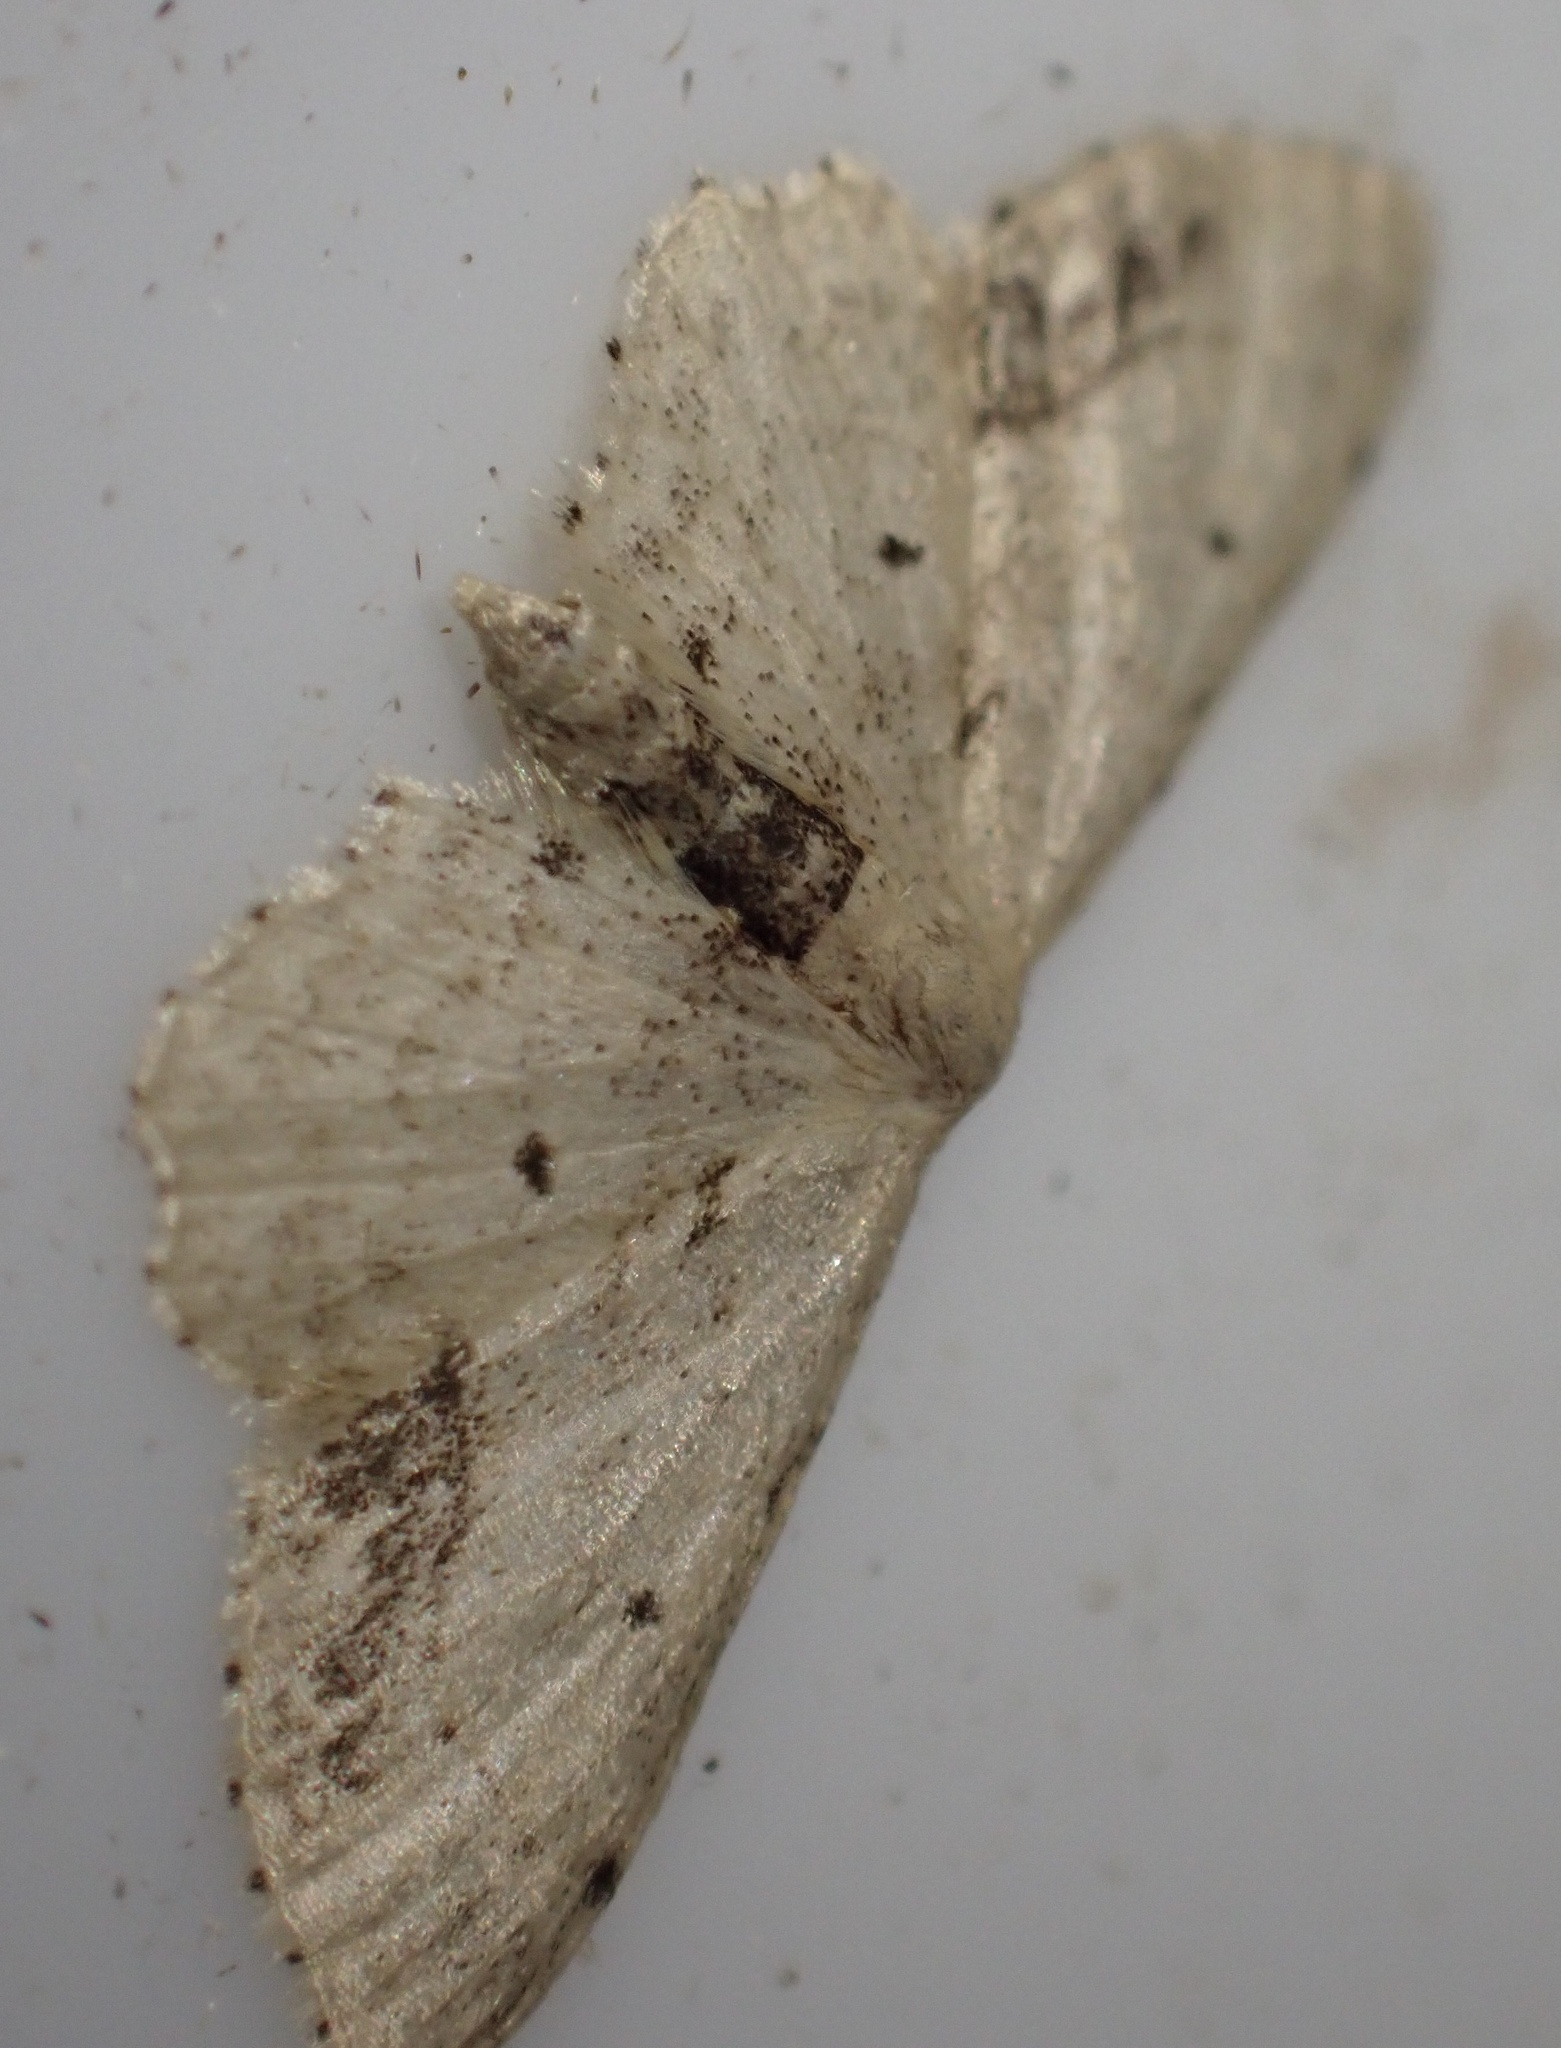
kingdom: Animalia
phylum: Arthropoda
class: Insecta
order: Lepidoptera
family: Geometridae
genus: Idaea
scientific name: Idaea dimidiata
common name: Single-dotted wave
